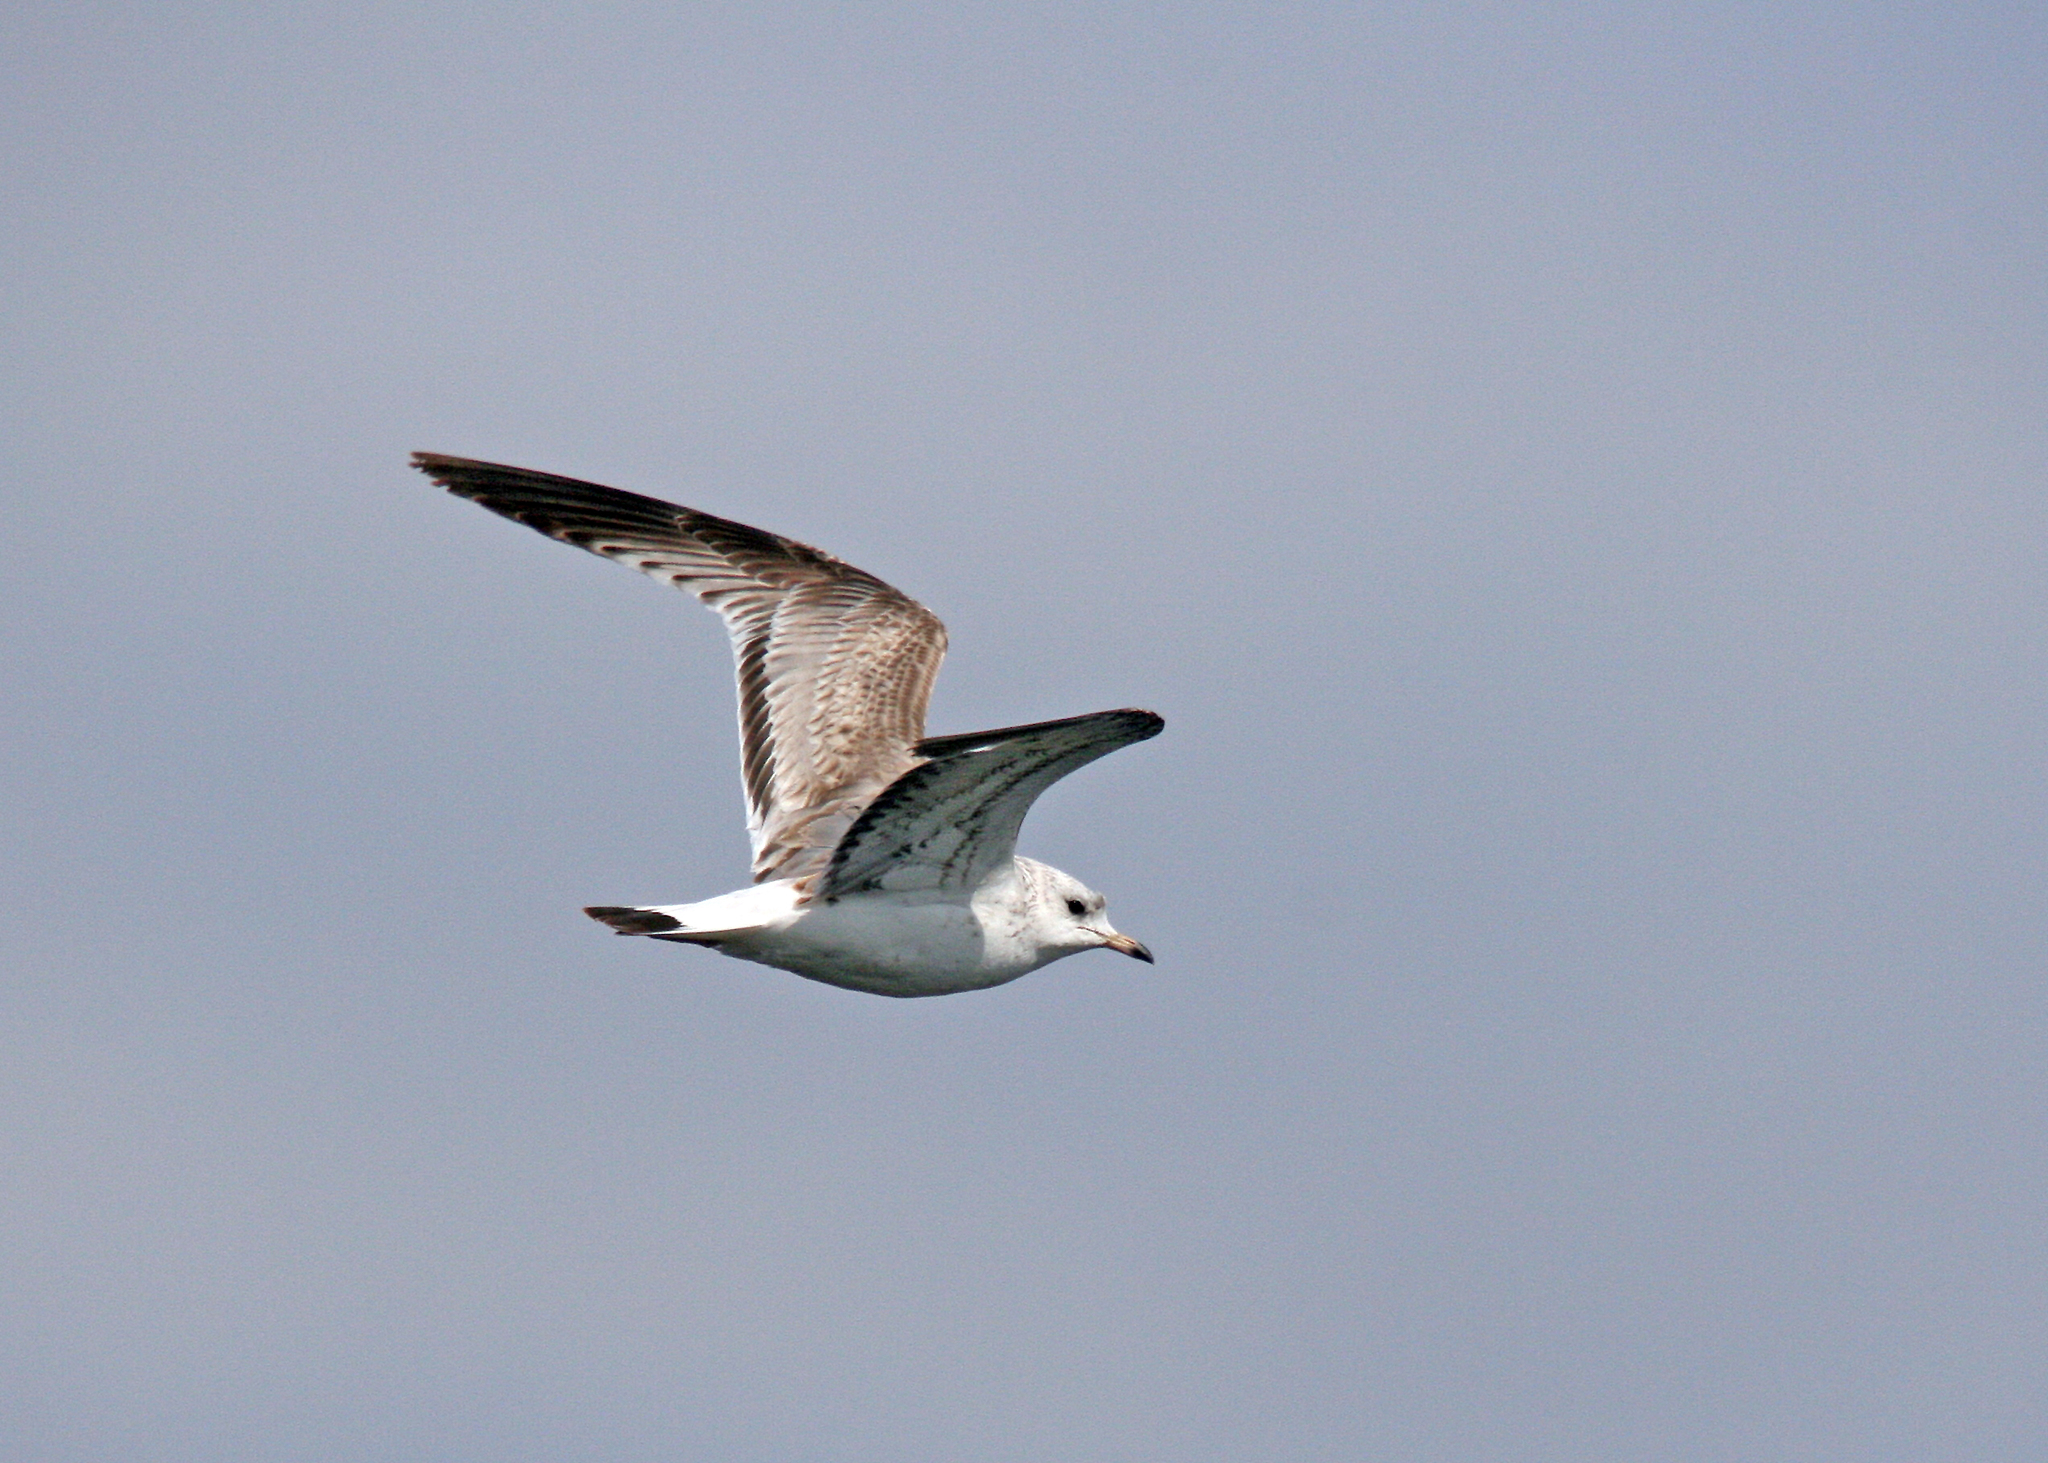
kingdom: Animalia
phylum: Chordata
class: Aves
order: Charadriiformes
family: Laridae
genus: Larus
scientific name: Larus canus
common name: Mew gull
